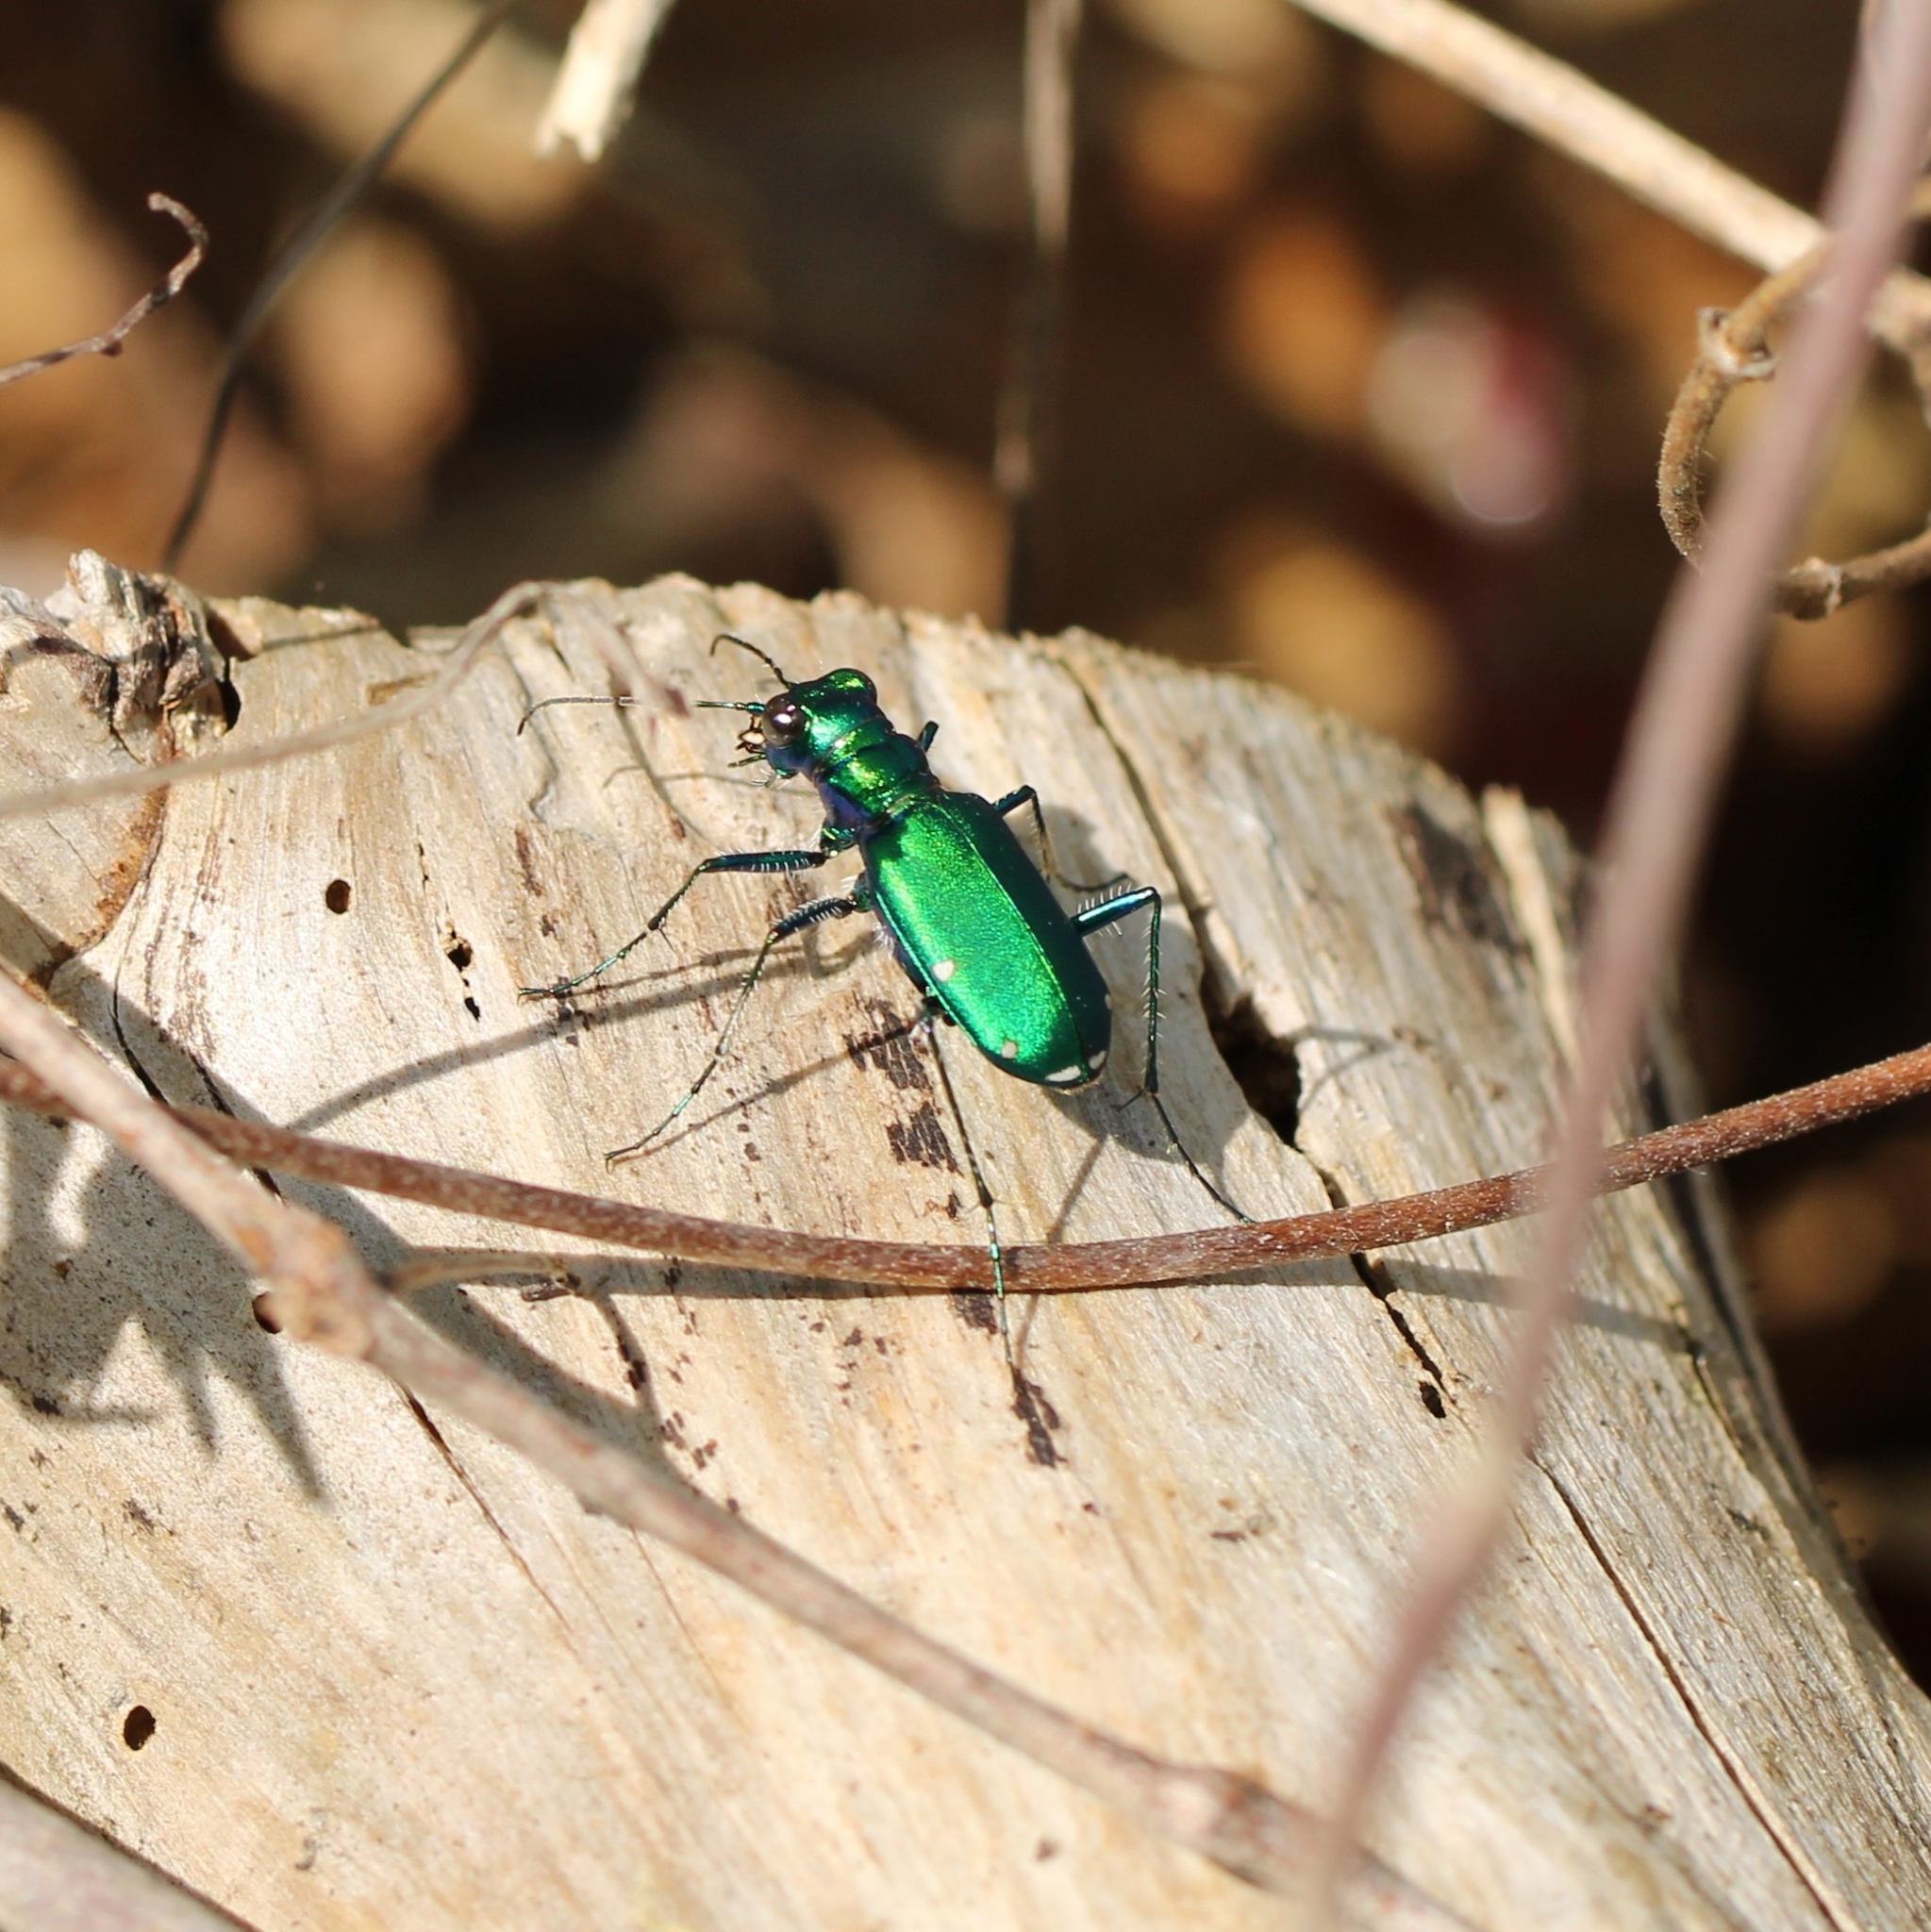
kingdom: Animalia
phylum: Arthropoda
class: Insecta
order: Coleoptera
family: Carabidae
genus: Cicindela
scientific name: Cicindela sexguttata
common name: Six-spotted tiger beetle
